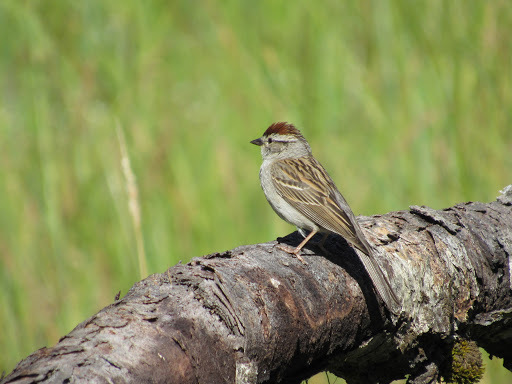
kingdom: Animalia
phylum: Chordata
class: Aves
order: Passeriformes
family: Passerellidae
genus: Spizella
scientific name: Spizella passerina
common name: Chipping sparrow
